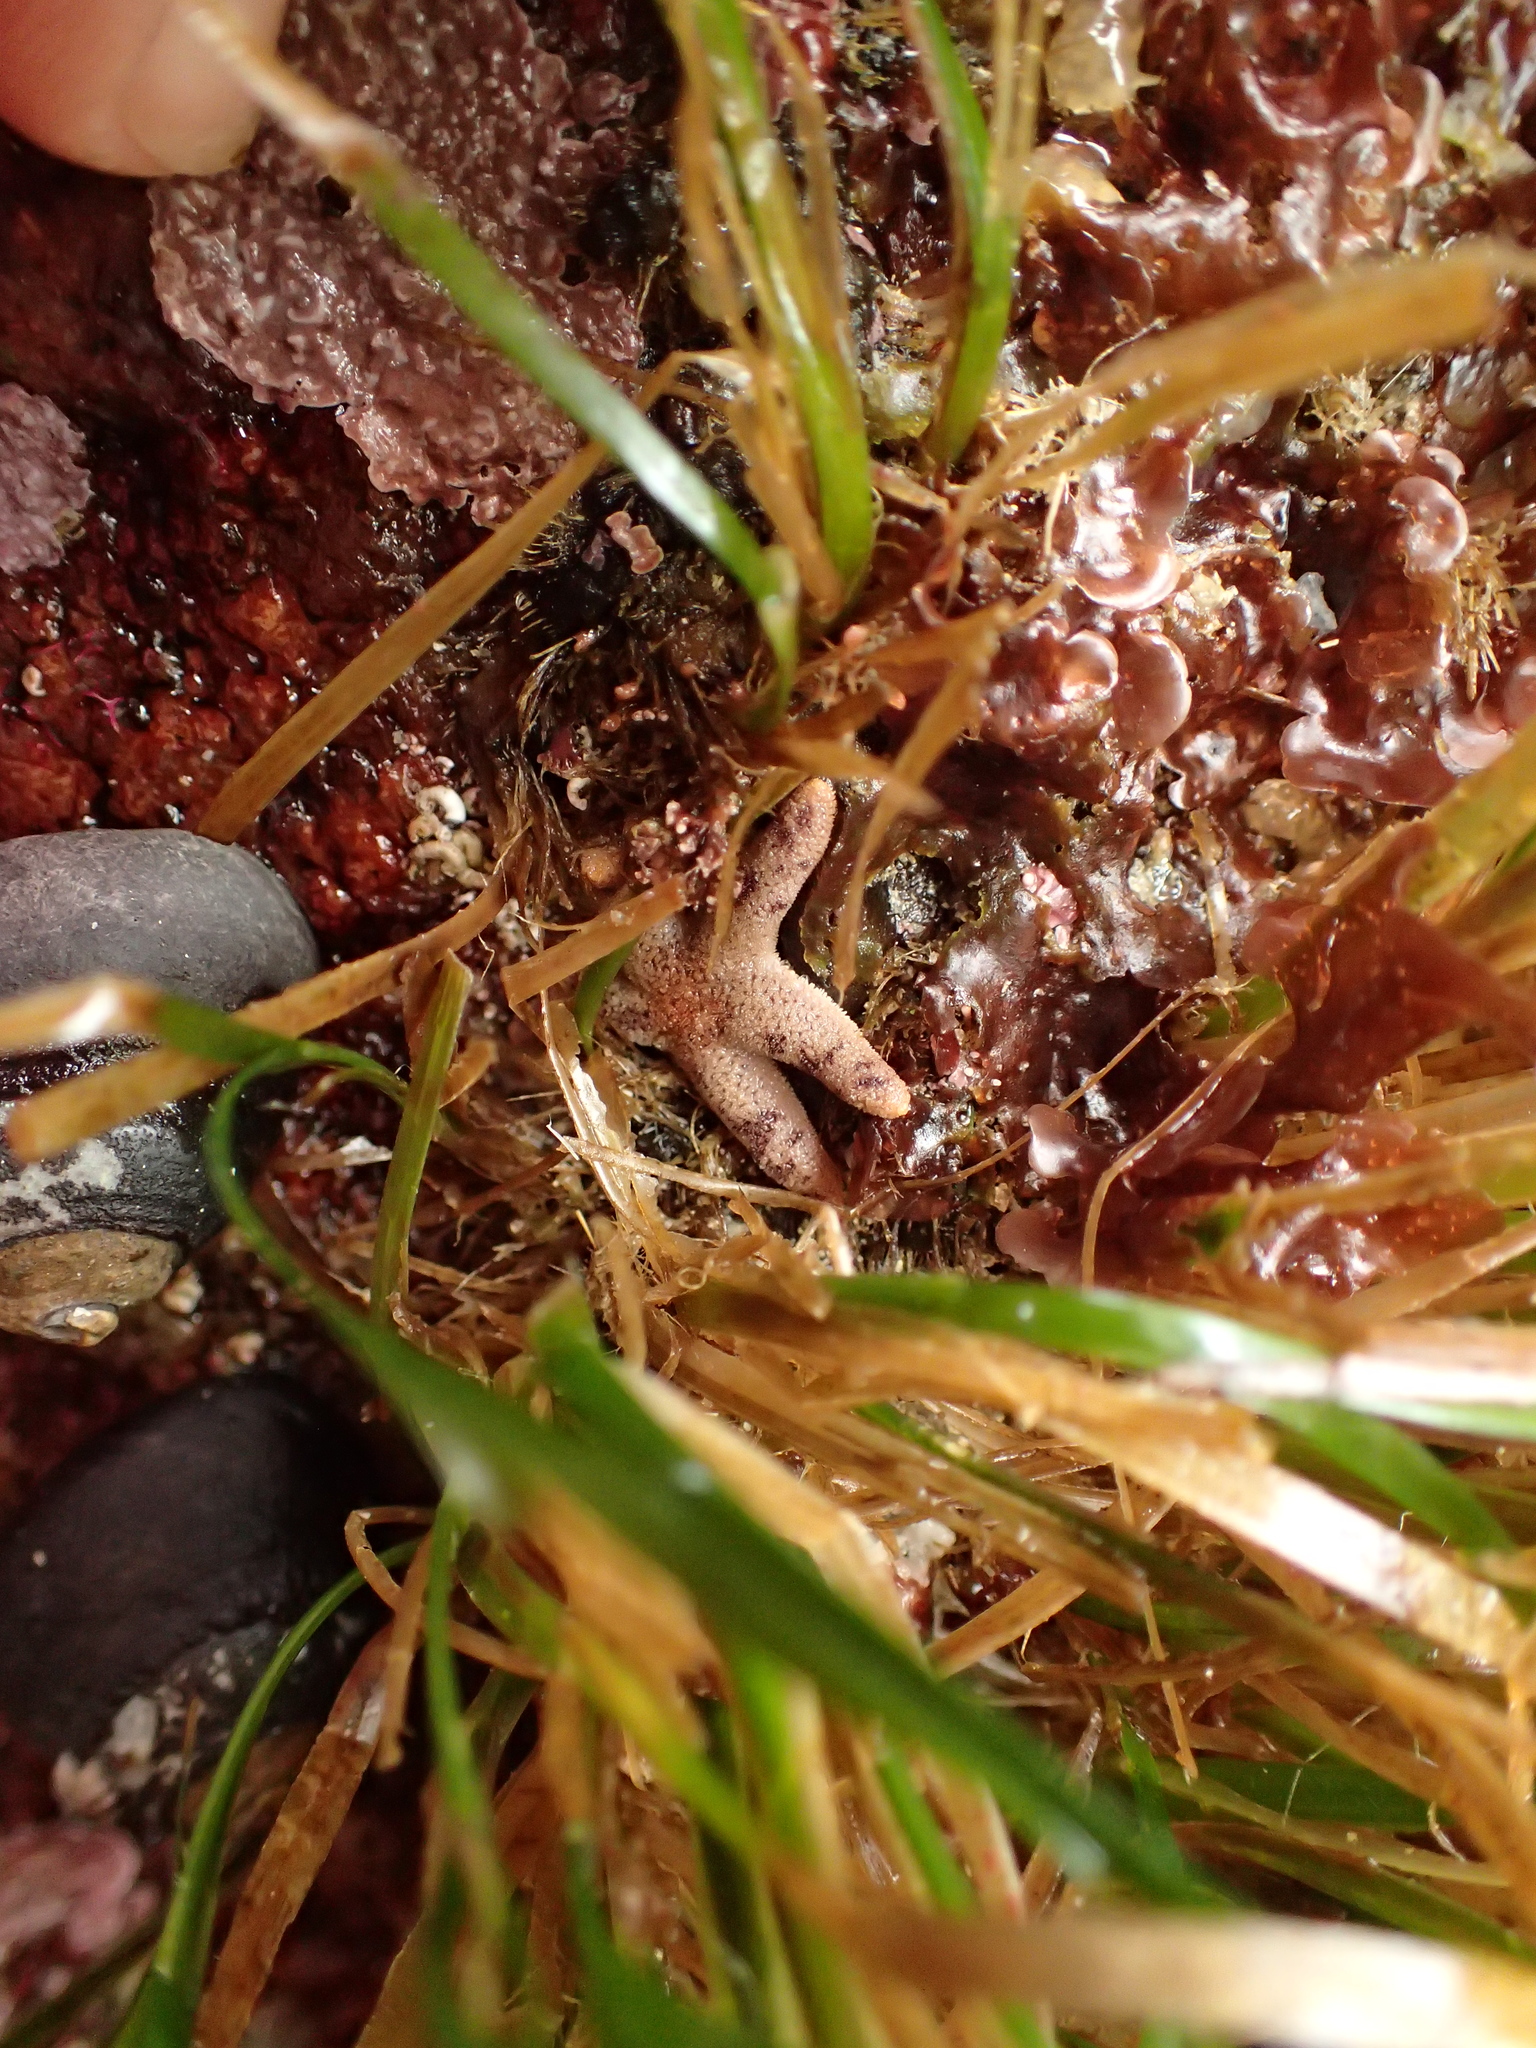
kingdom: Animalia
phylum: Echinodermata
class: Asteroidea
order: Spinulosida
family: Echinasteridae
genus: Henricia
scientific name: Henricia pumila
